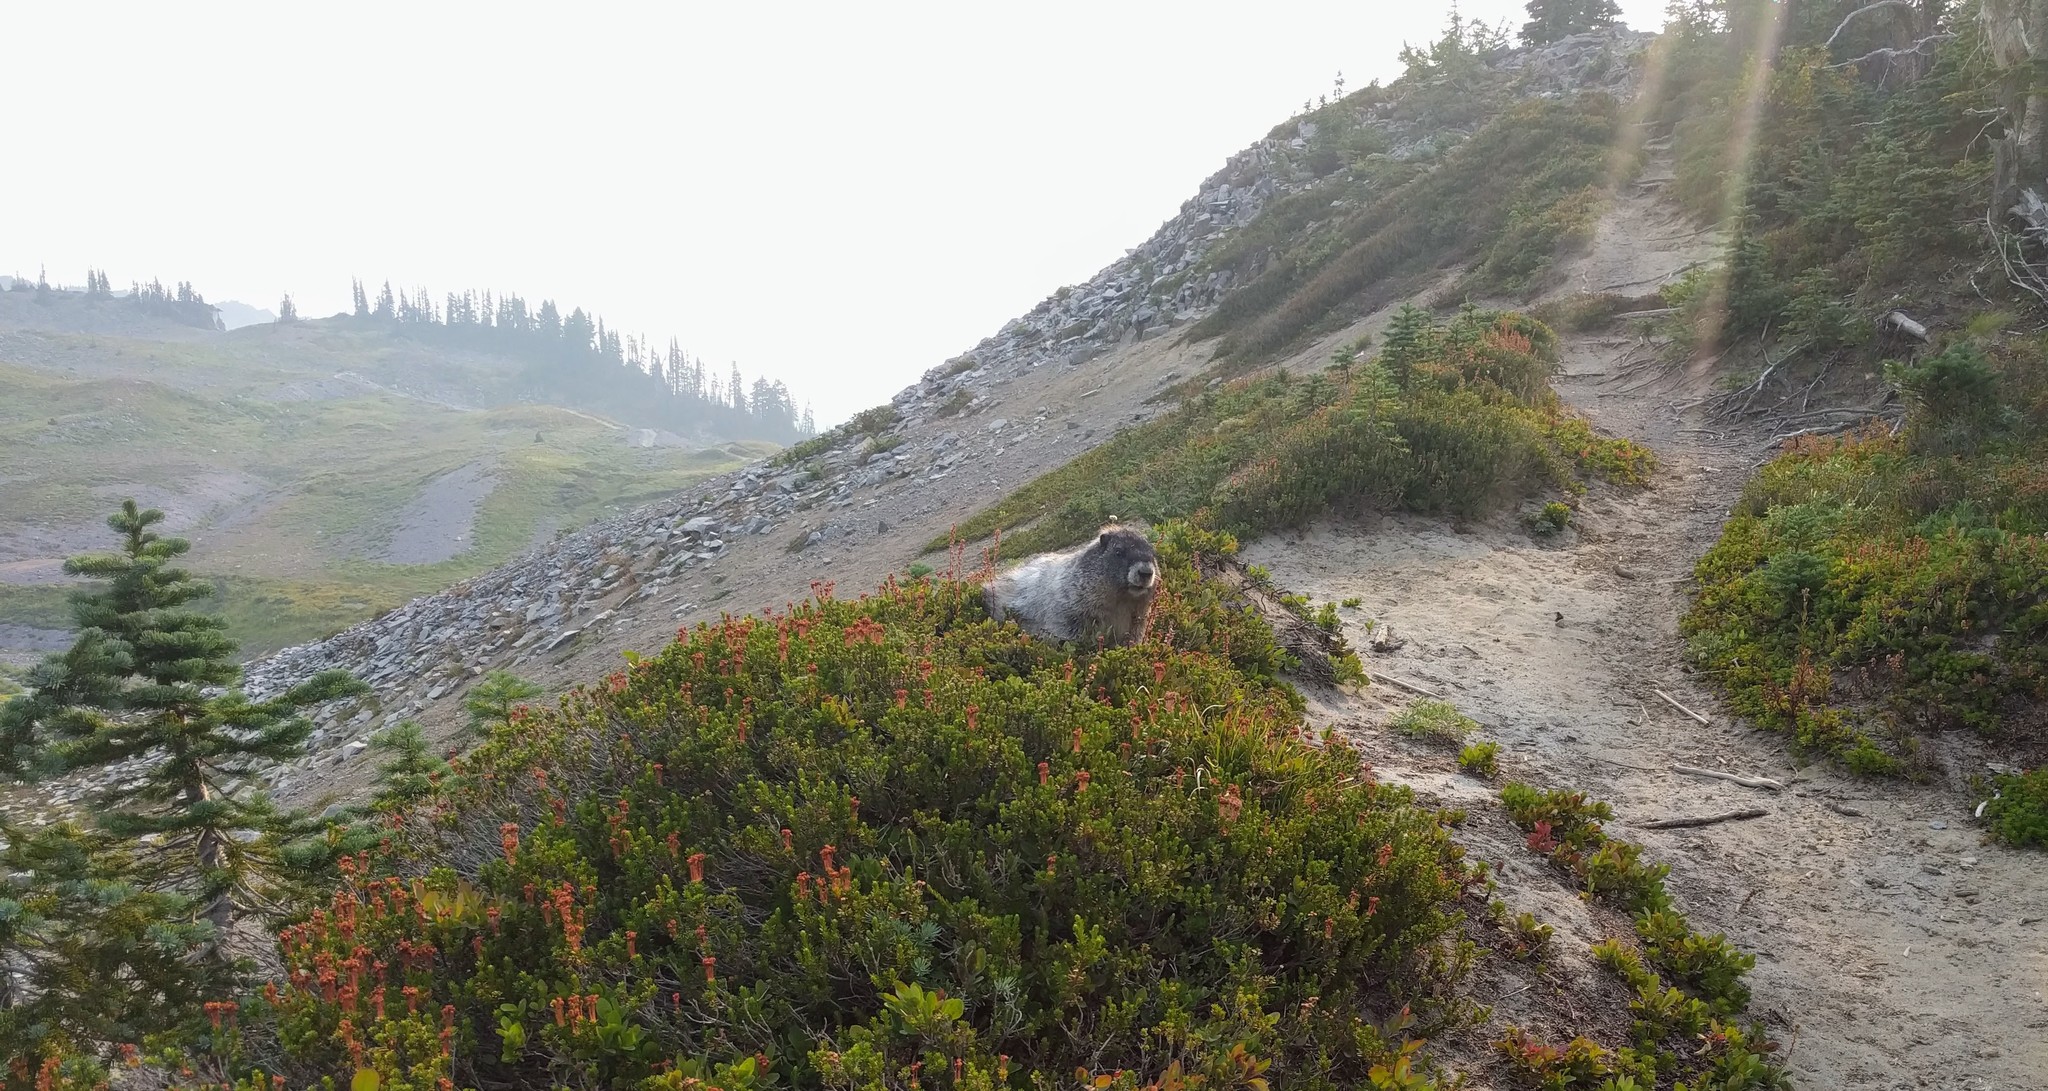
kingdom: Animalia
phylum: Chordata
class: Mammalia
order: Rodentia
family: Sciuridae
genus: Marmota
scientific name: Marmota caligata
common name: Hoary marmot
